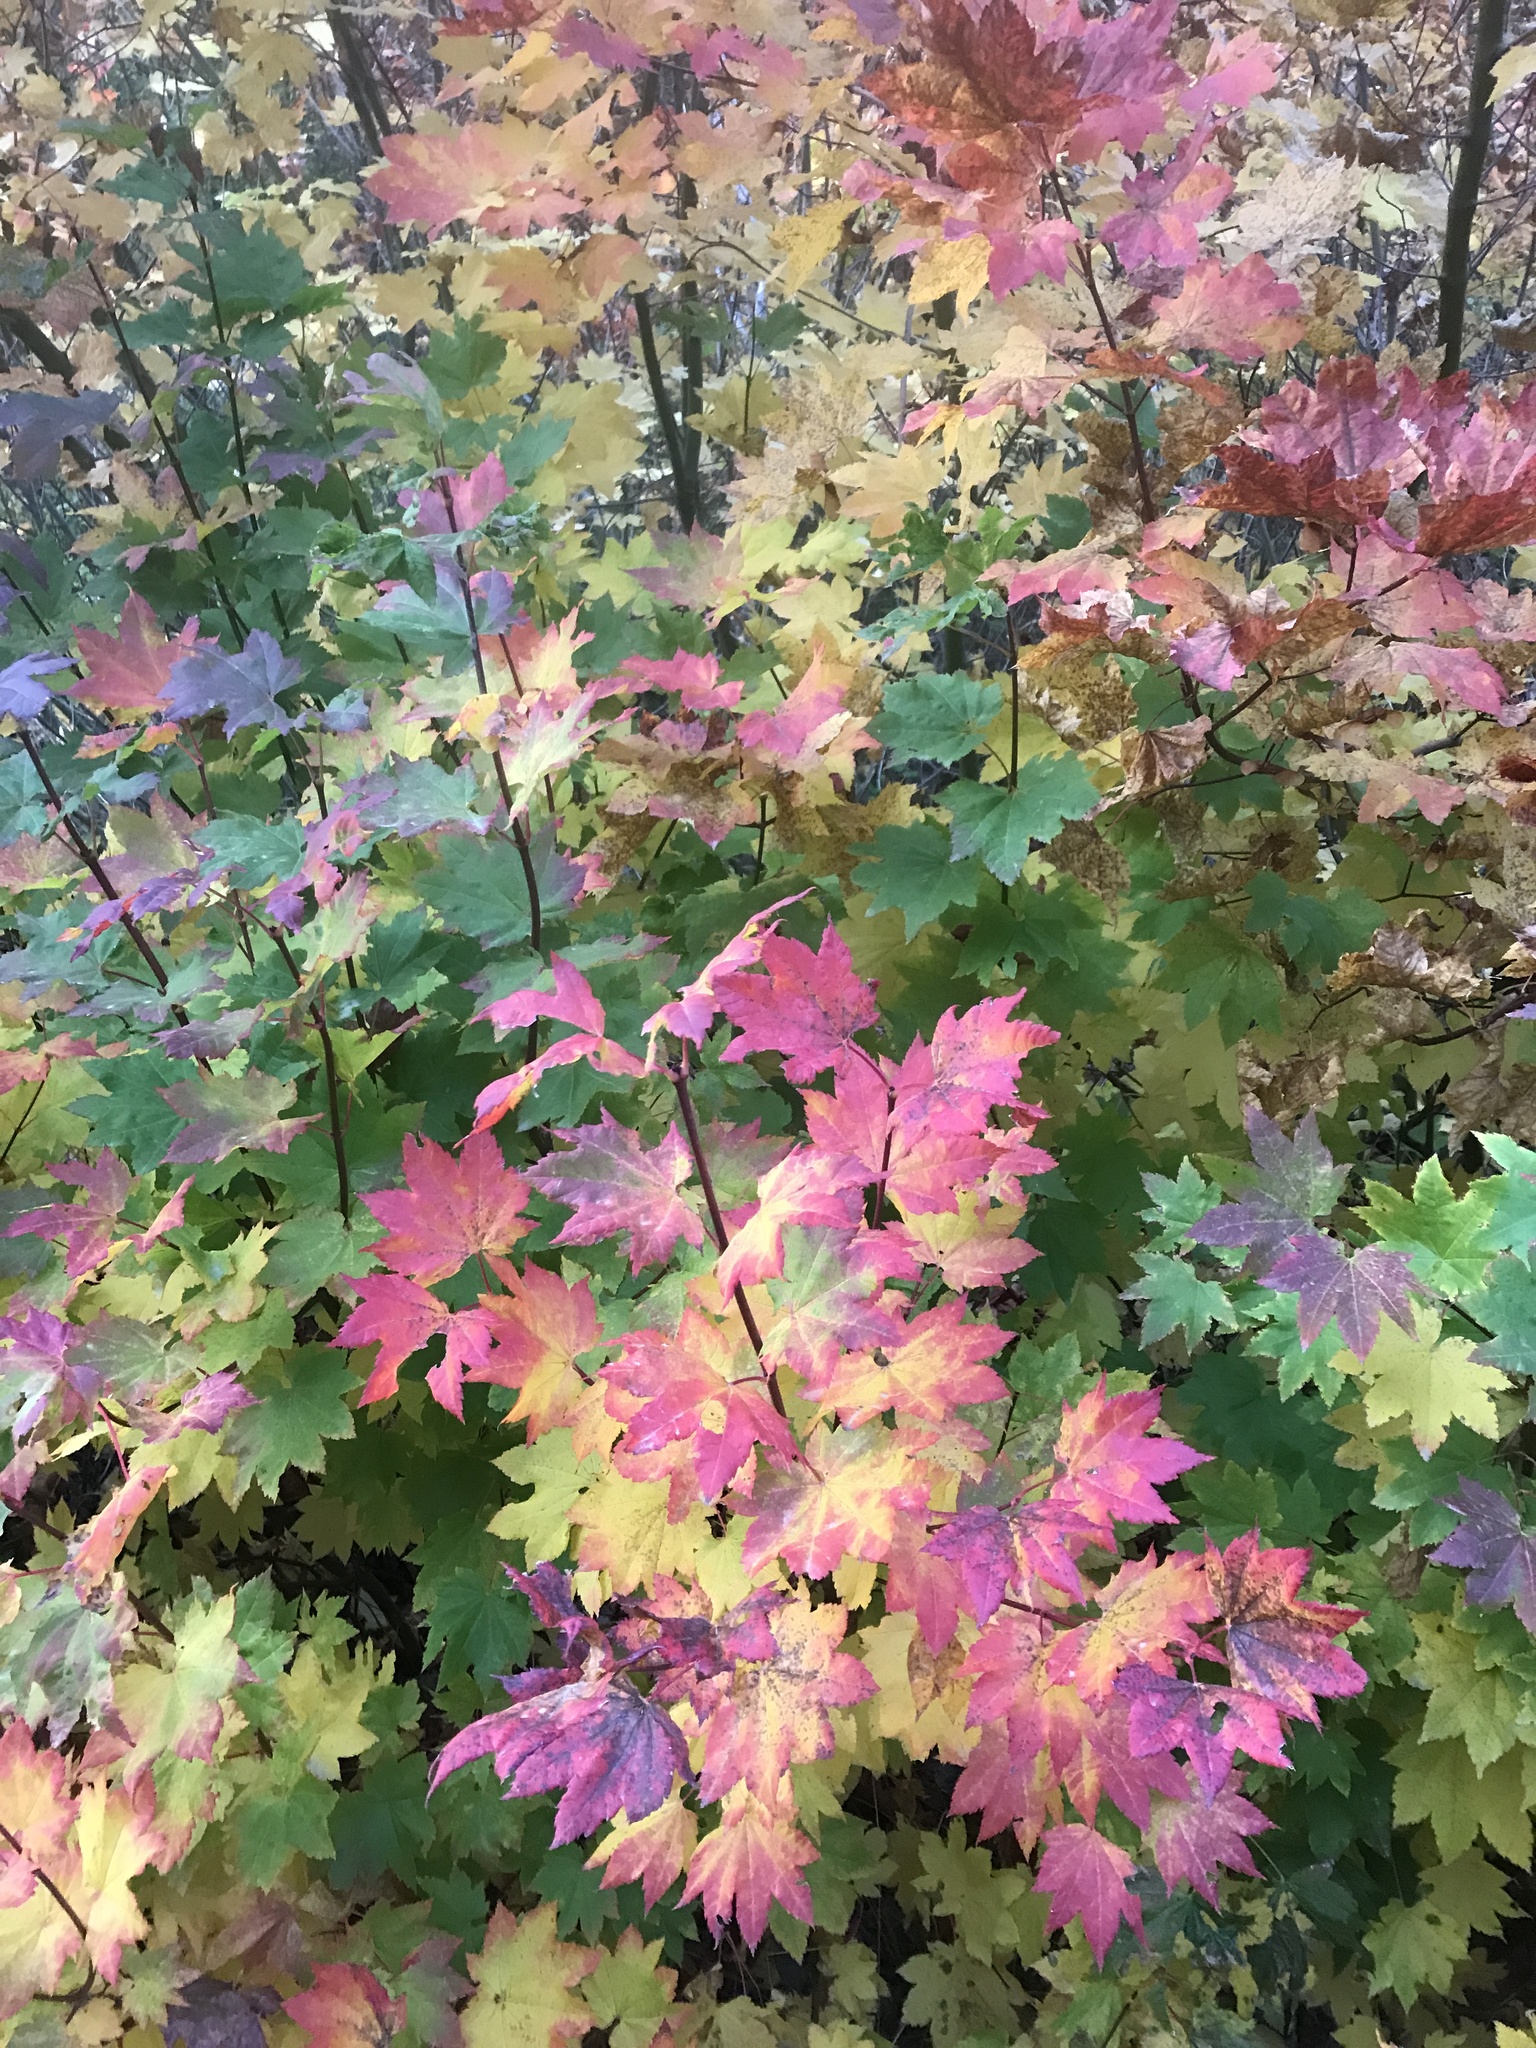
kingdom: Plantae
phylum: Tracheophyta
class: Magnoliopsida
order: Sapindales
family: Sapindaceae
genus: Acer
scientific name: Acer circinatum
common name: Vine maple
